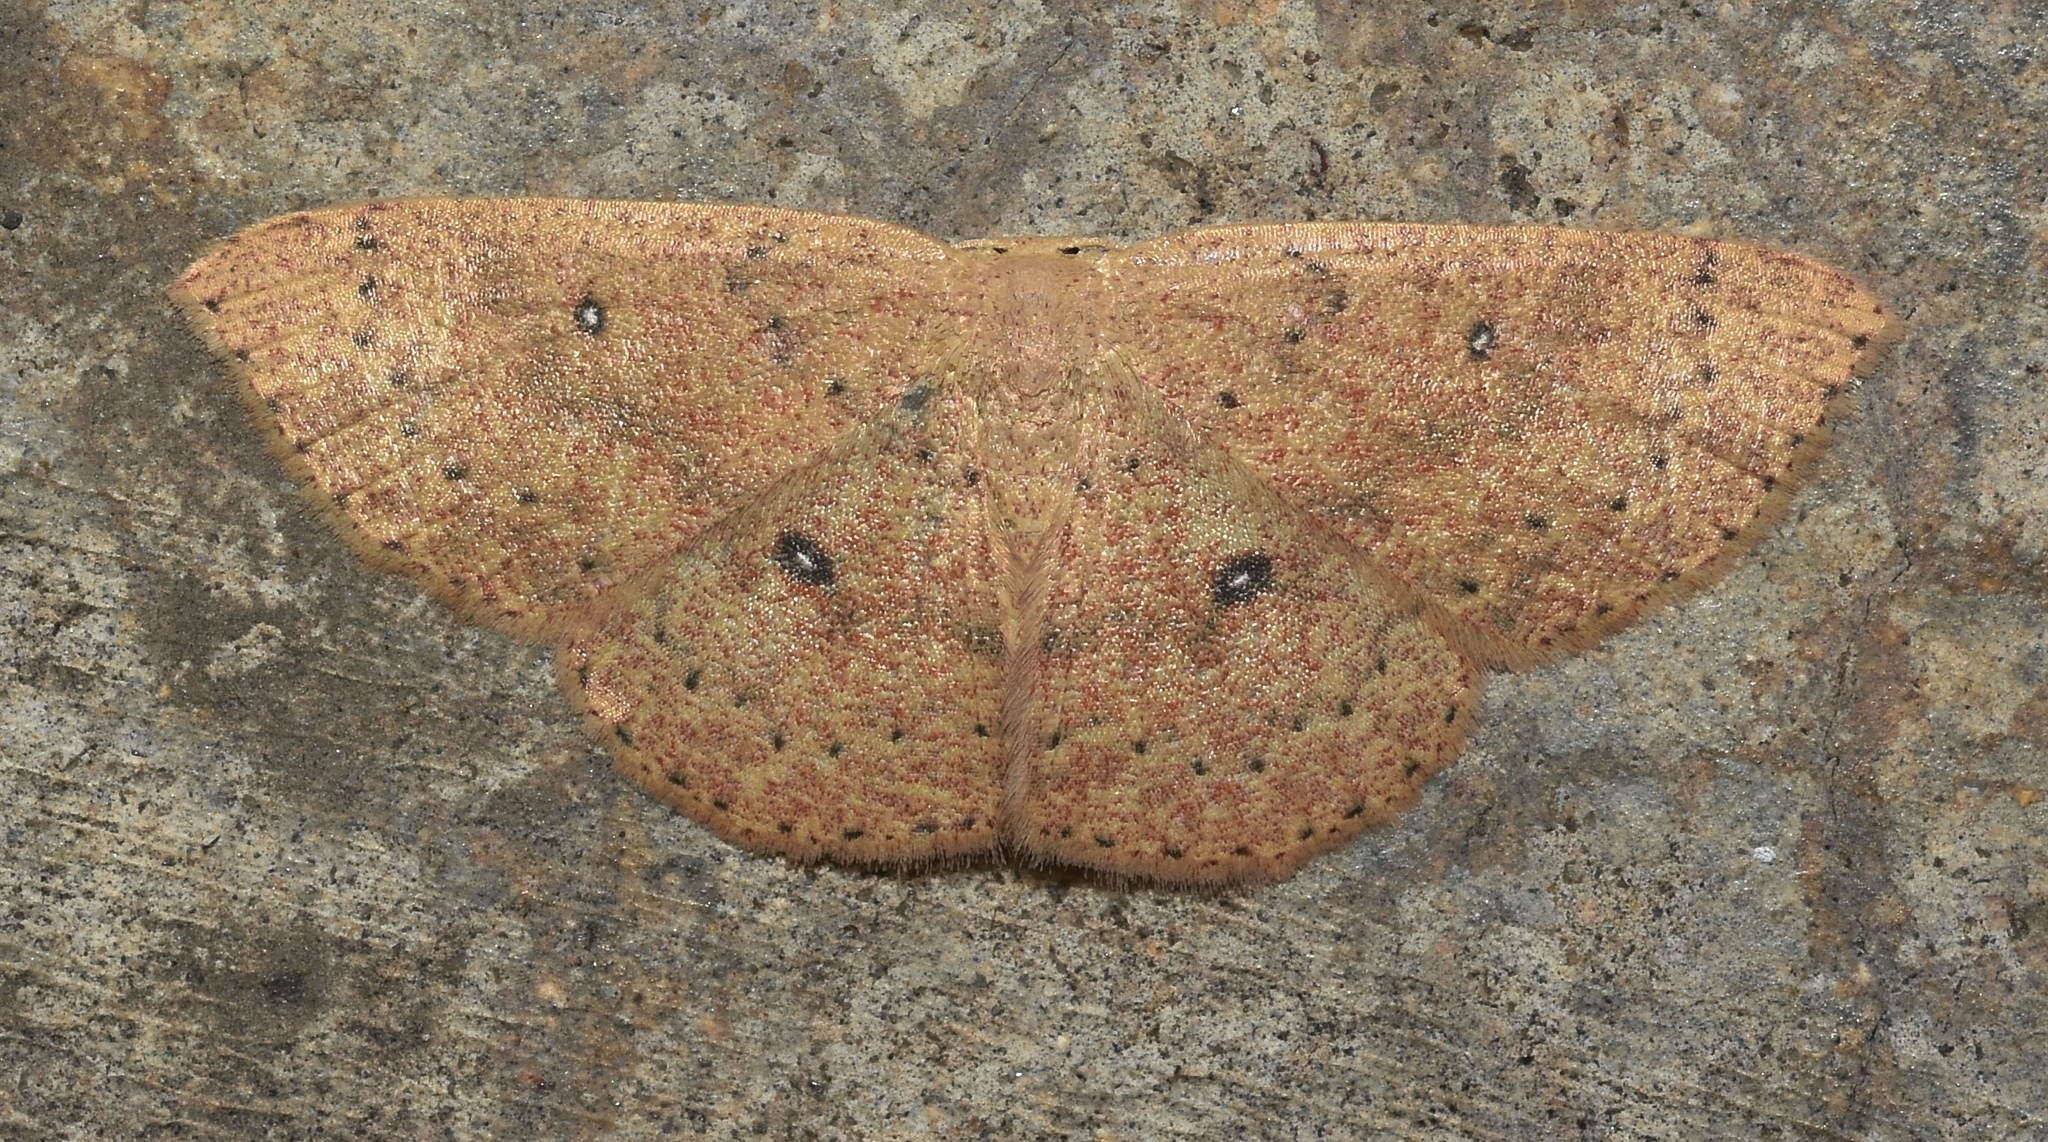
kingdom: Animalia
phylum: Arthropoda
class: Insecta
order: Lepidoptera
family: Geometridae
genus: Cyclophora
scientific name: Cyclophora packardi
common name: Packard's wave
